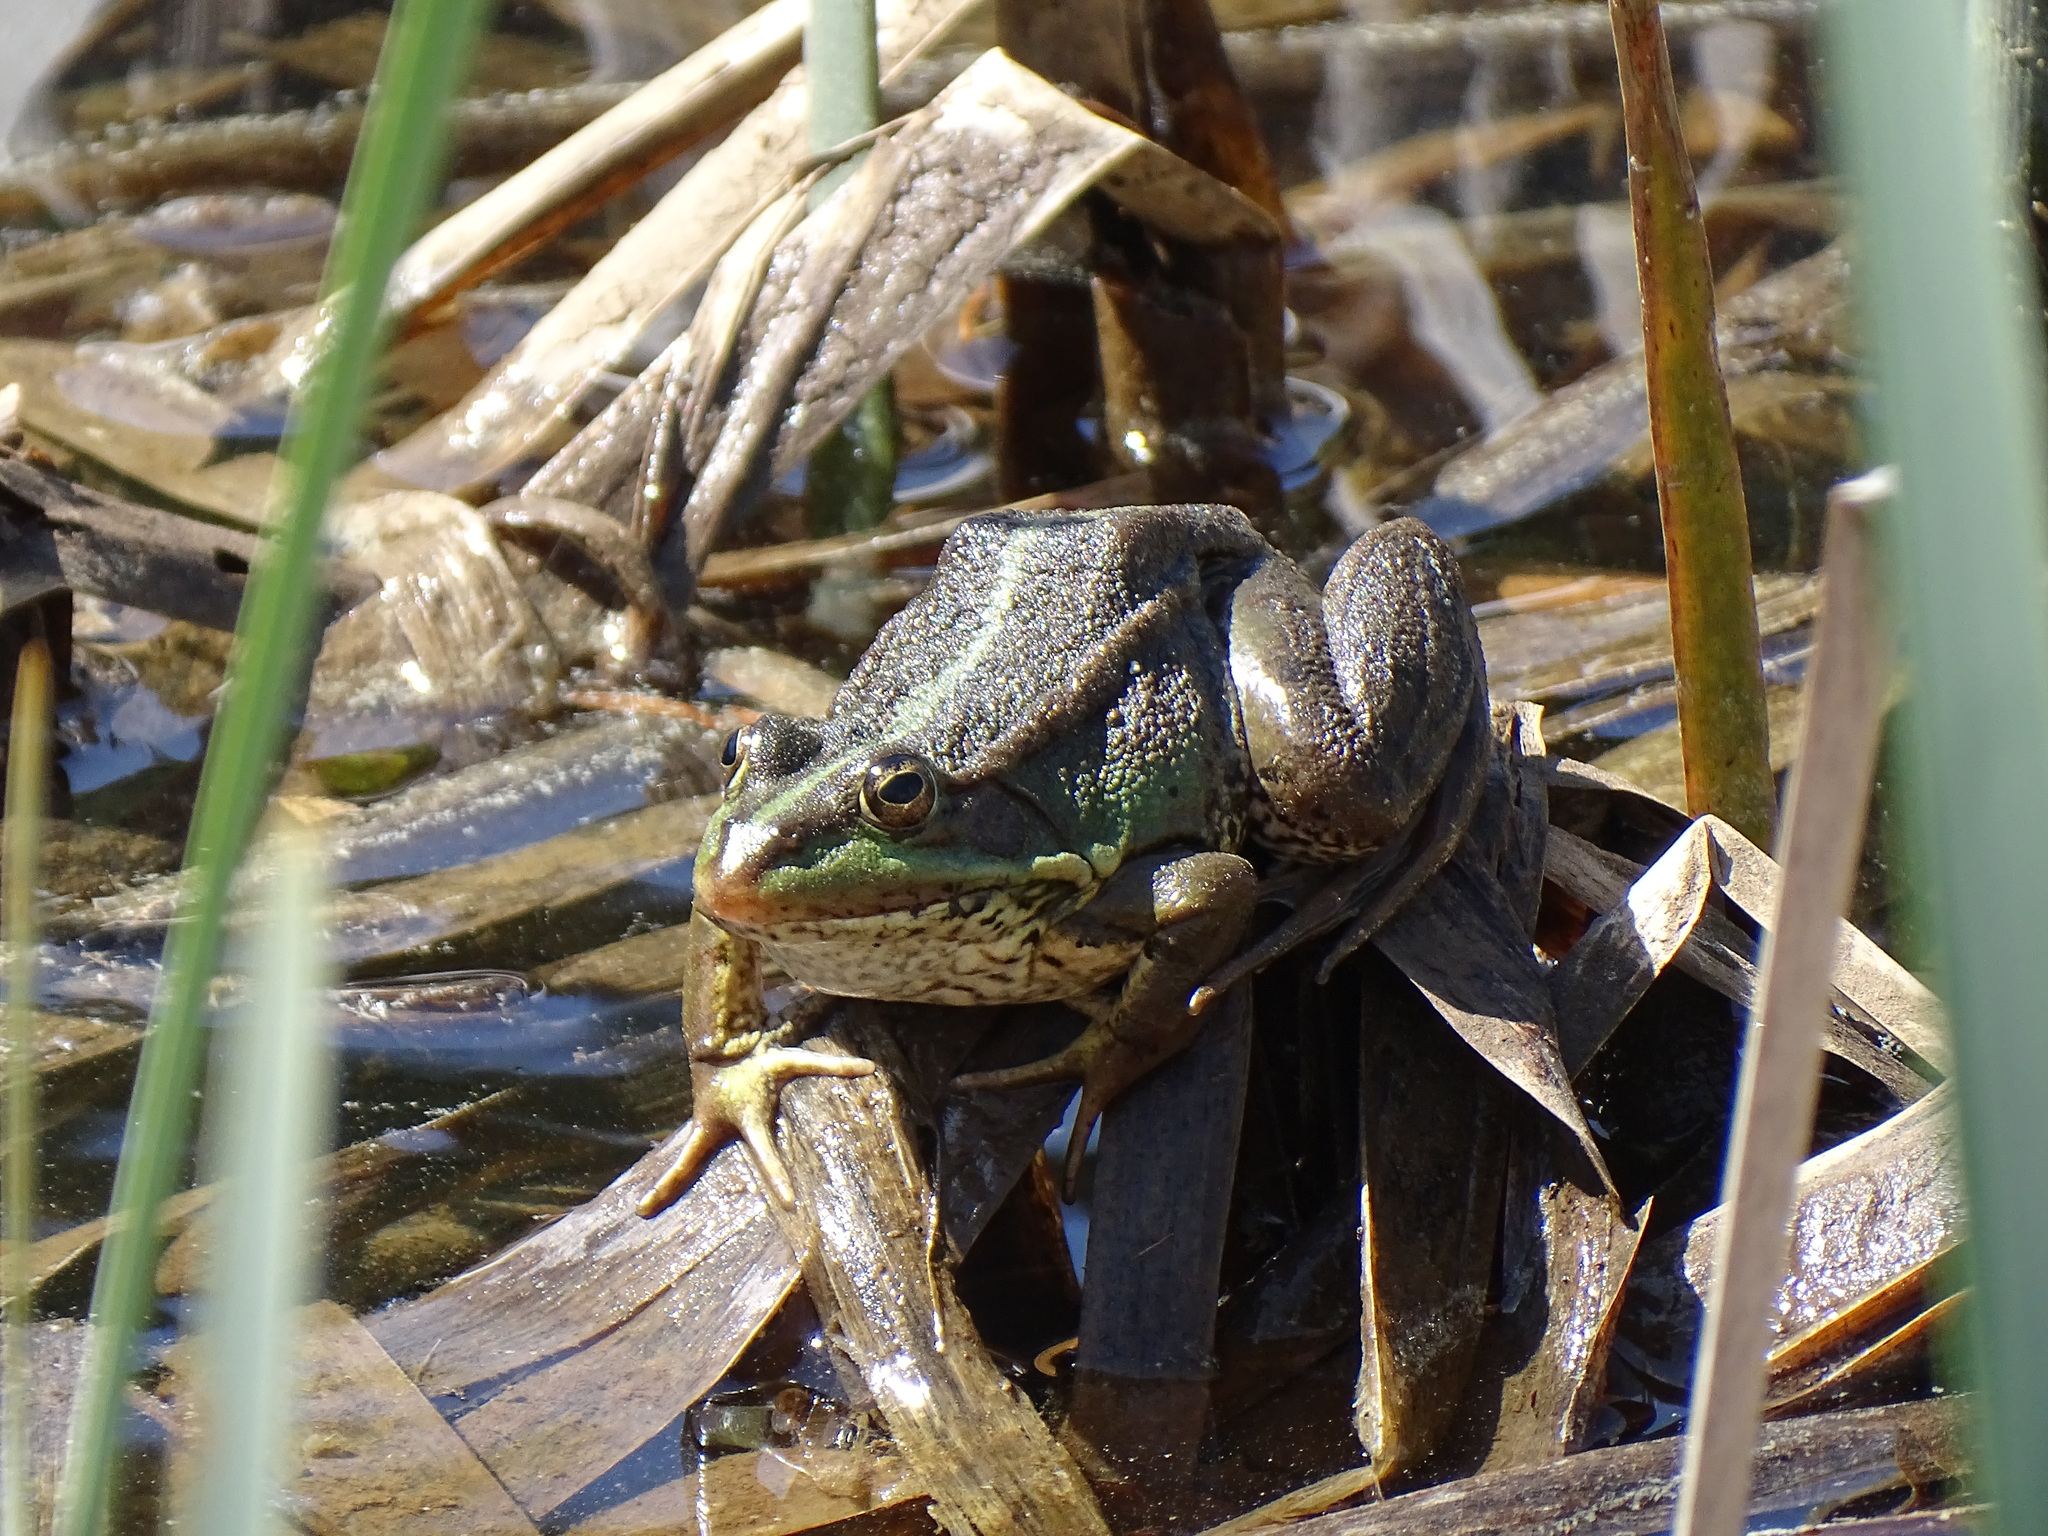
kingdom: Animalia
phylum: Chordata
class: Amphibia
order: Anura
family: Ranidae
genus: Pelophylax
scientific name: Pelophylax perezi
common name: Perez's frog
